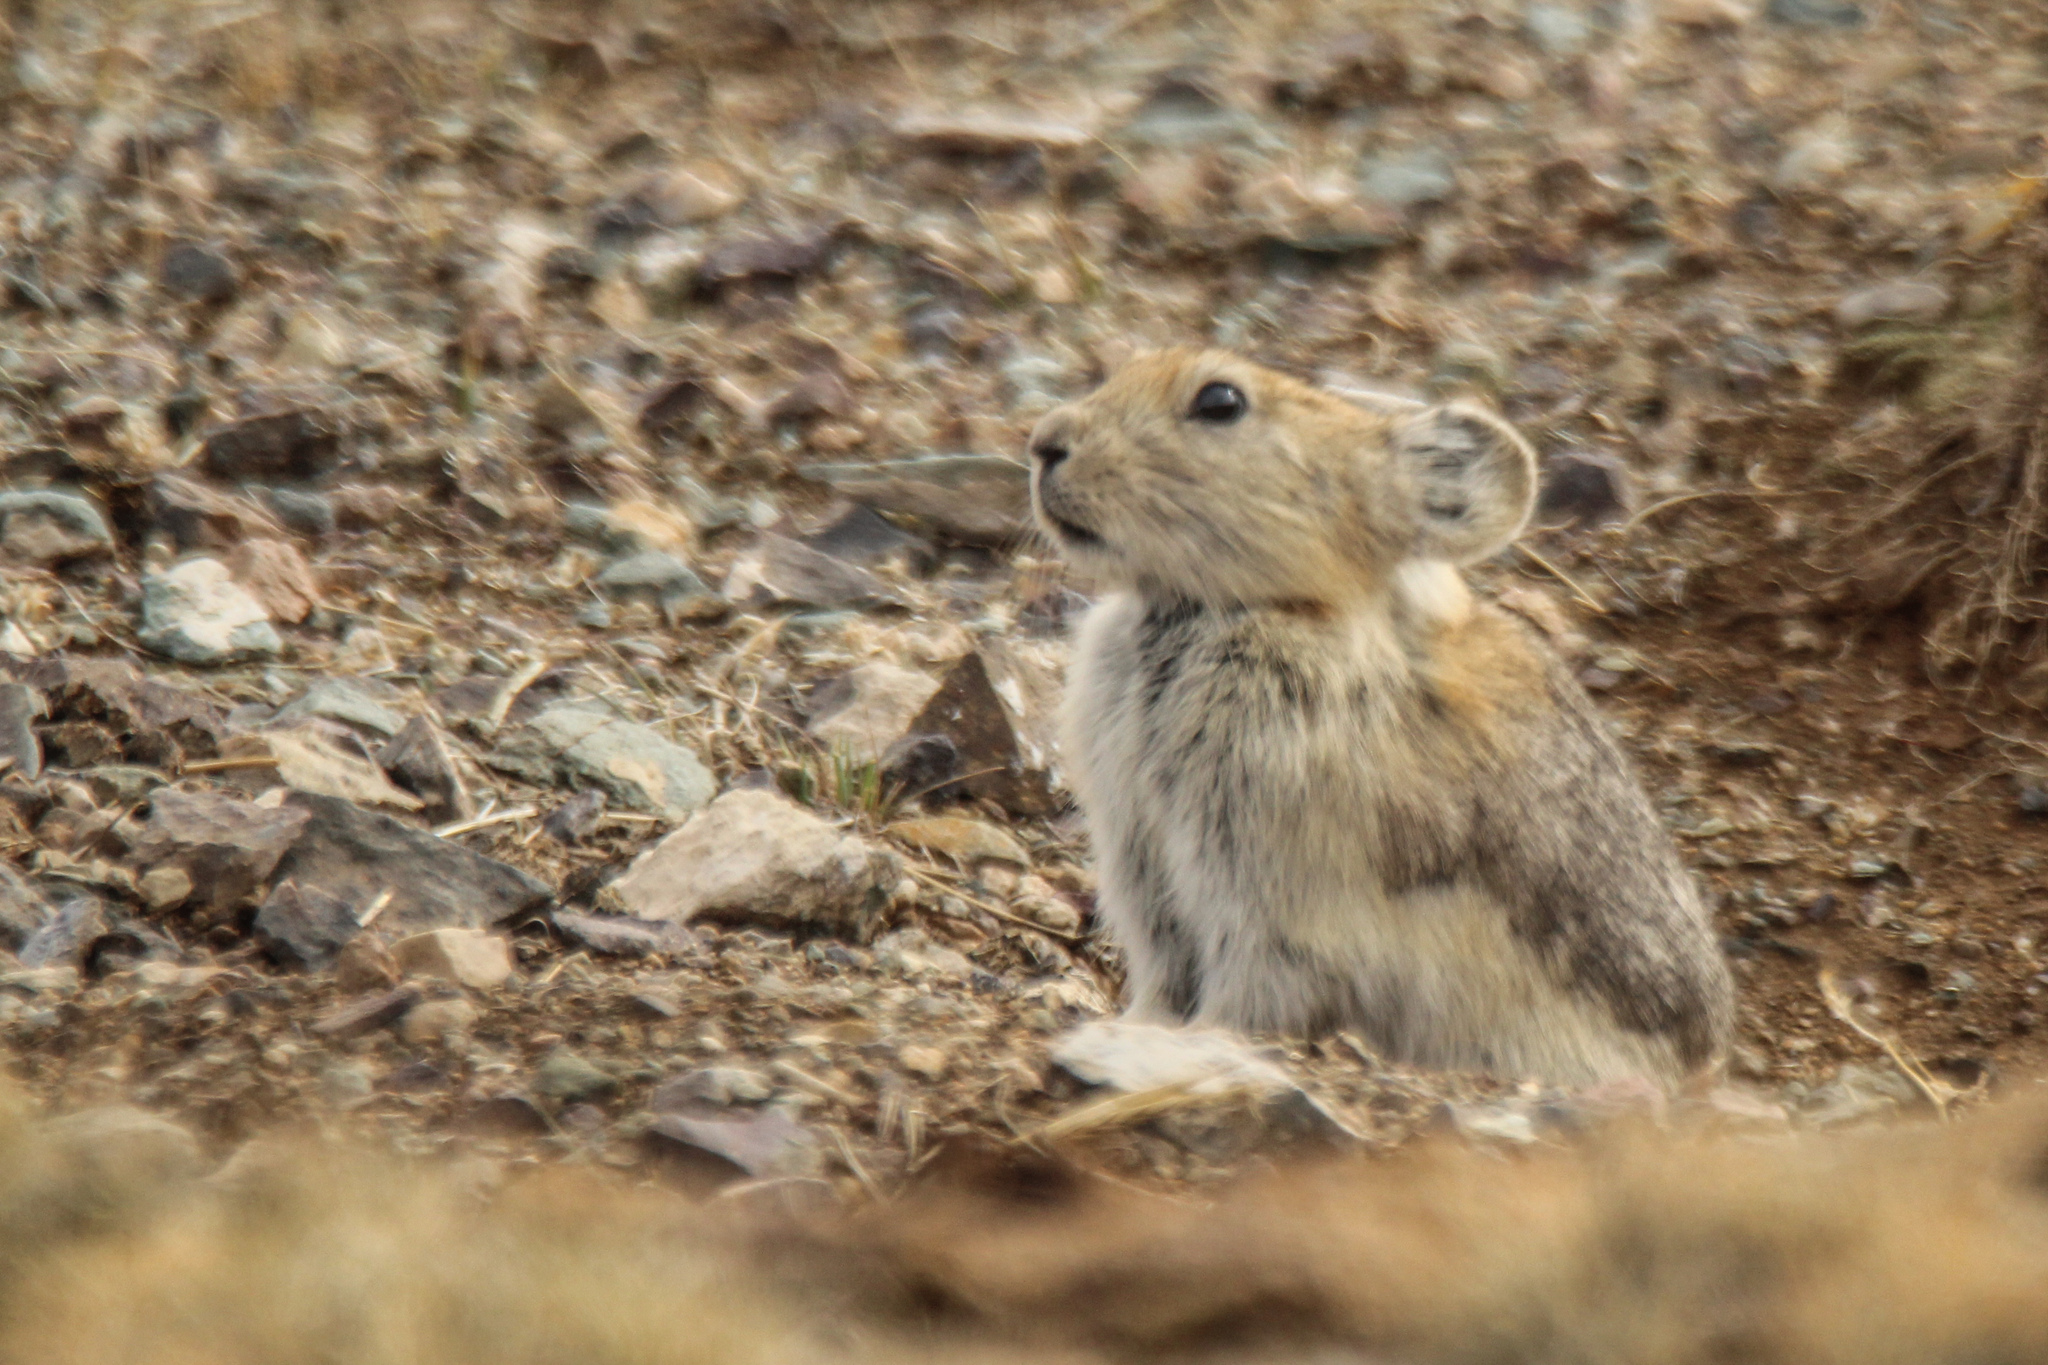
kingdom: Animalia
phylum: Chordata
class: Mammalia
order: Lagomorpha
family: Ochotonidae
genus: Ochotona
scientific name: Ochotona pallasi
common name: Mongolian pika
